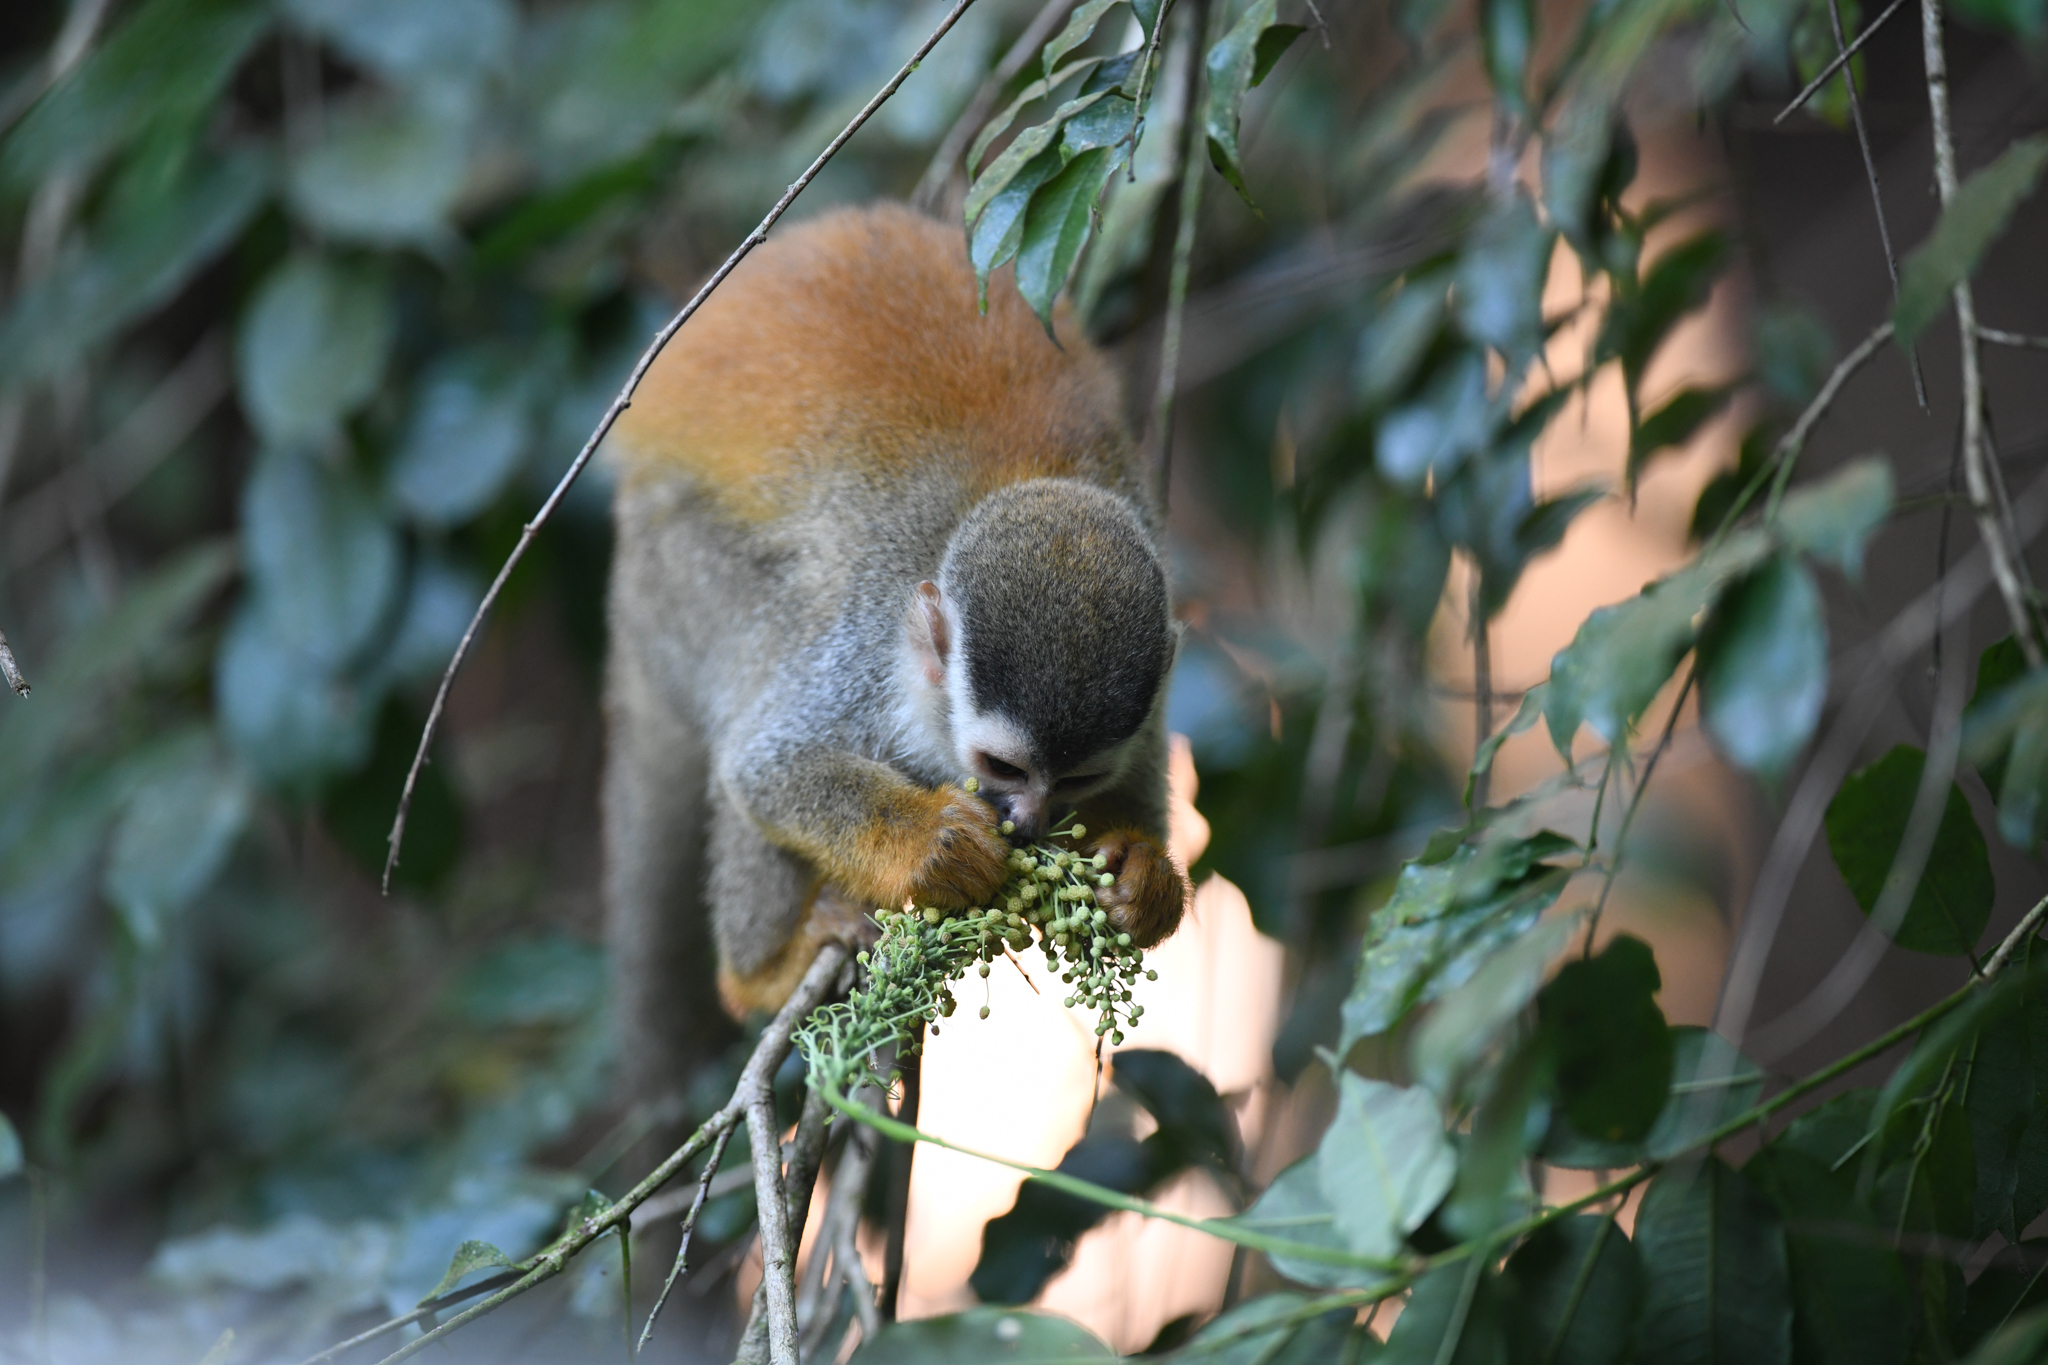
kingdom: Animalia
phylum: Chordata
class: Mammalia
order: Primates
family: Cebidae
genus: Saimiri
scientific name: Saimiri oerstedii
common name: Central american squirrel monkey
